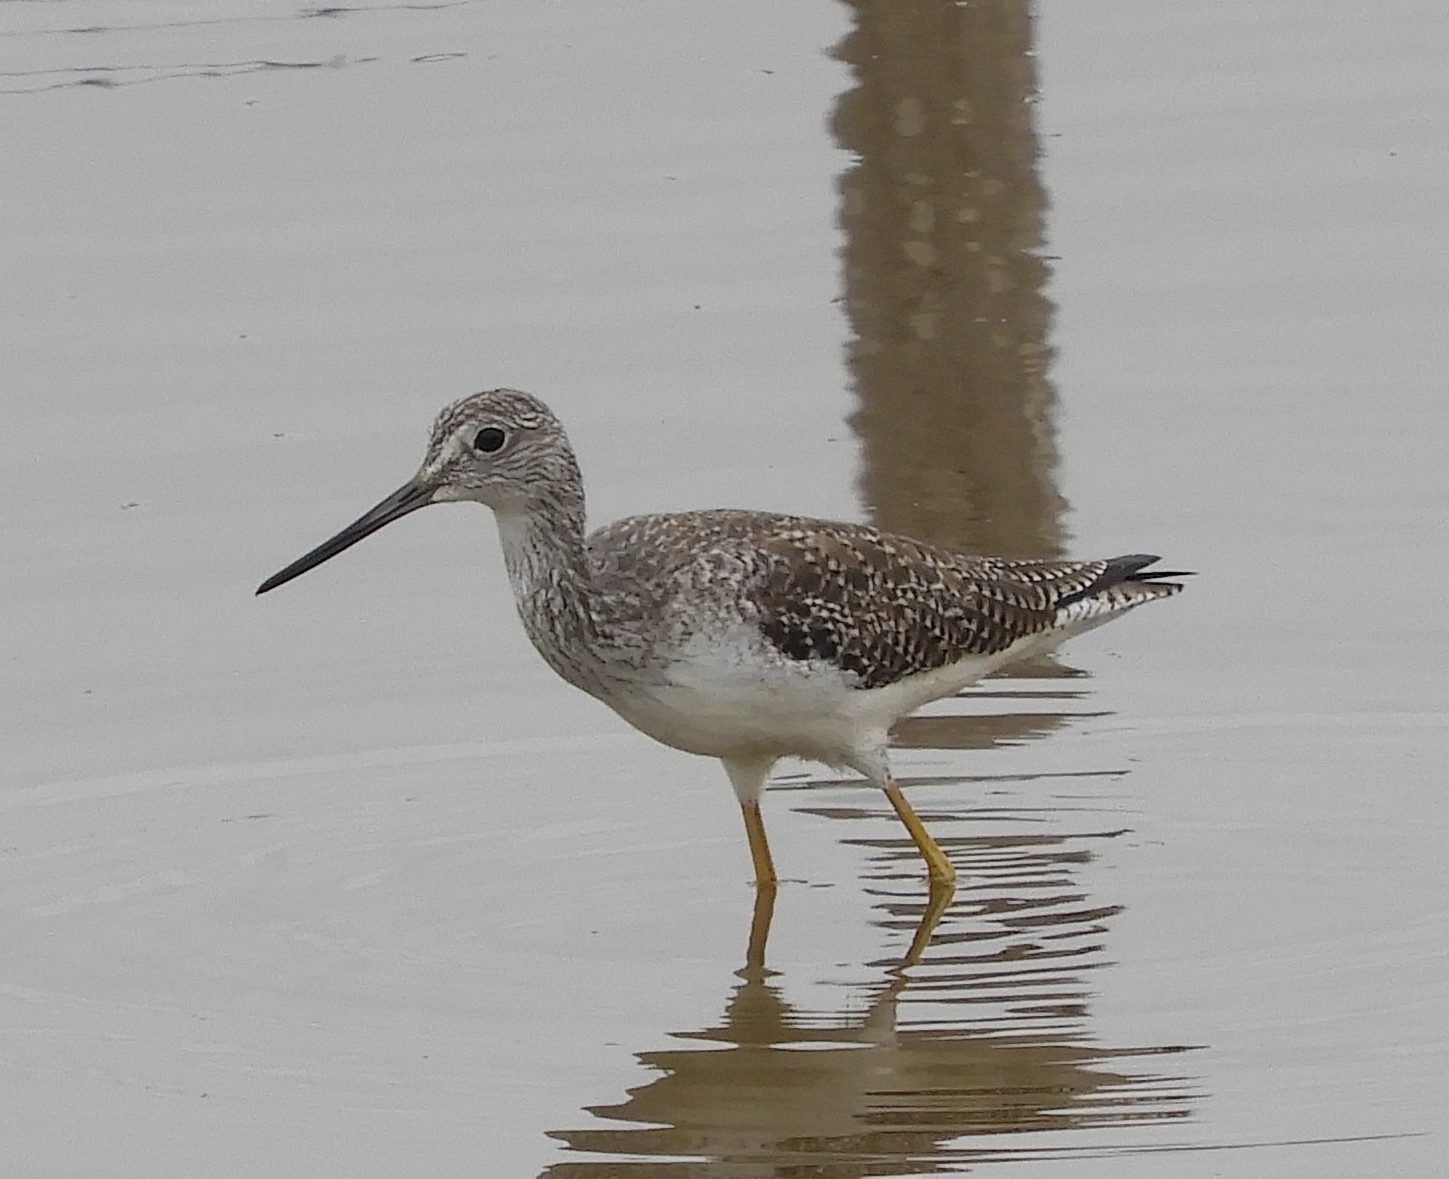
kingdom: Animalia
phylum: Chordata
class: Aves
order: Charadriiformes
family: Scolopacidae
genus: Tringa
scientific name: Tringa melanoleuca
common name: Greater yellowlegs
